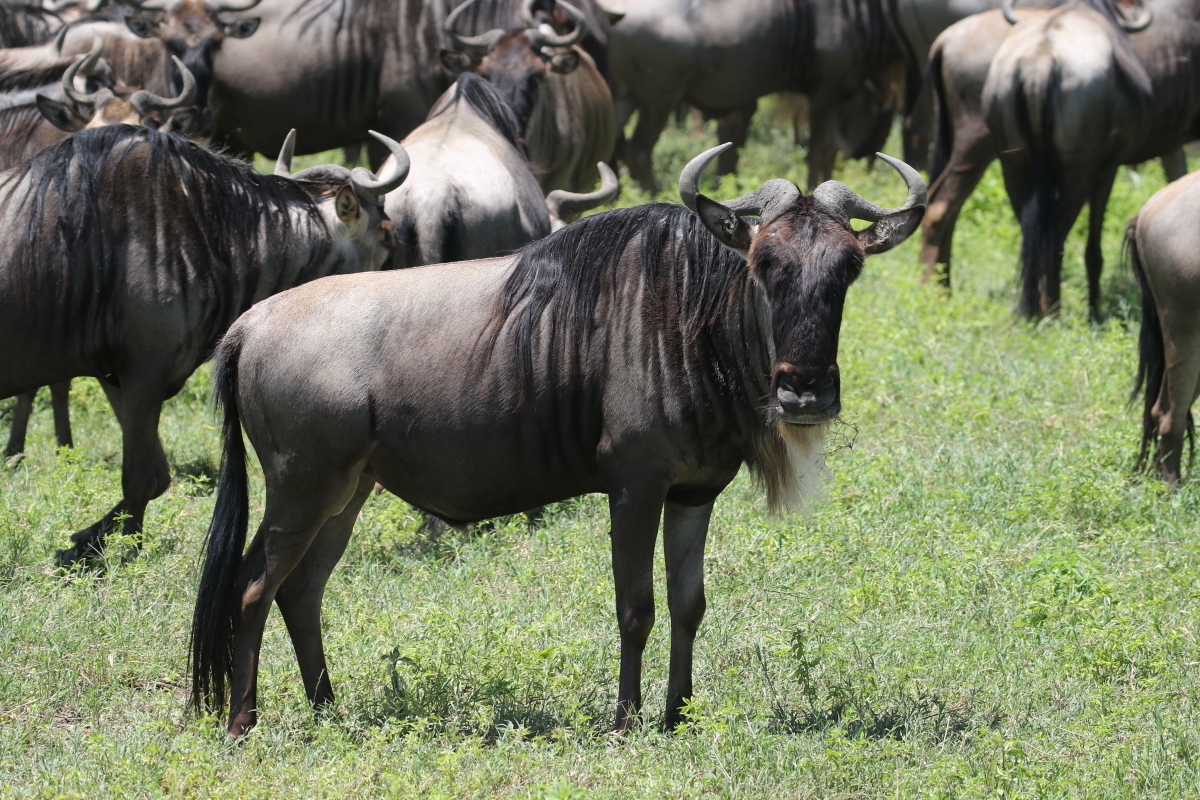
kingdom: Animalia
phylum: Chordata
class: Mammalia
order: Artiodactyla
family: Bovidae
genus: Connochaetes
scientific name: Connochaetes taurinus
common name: Blue wildebeest
